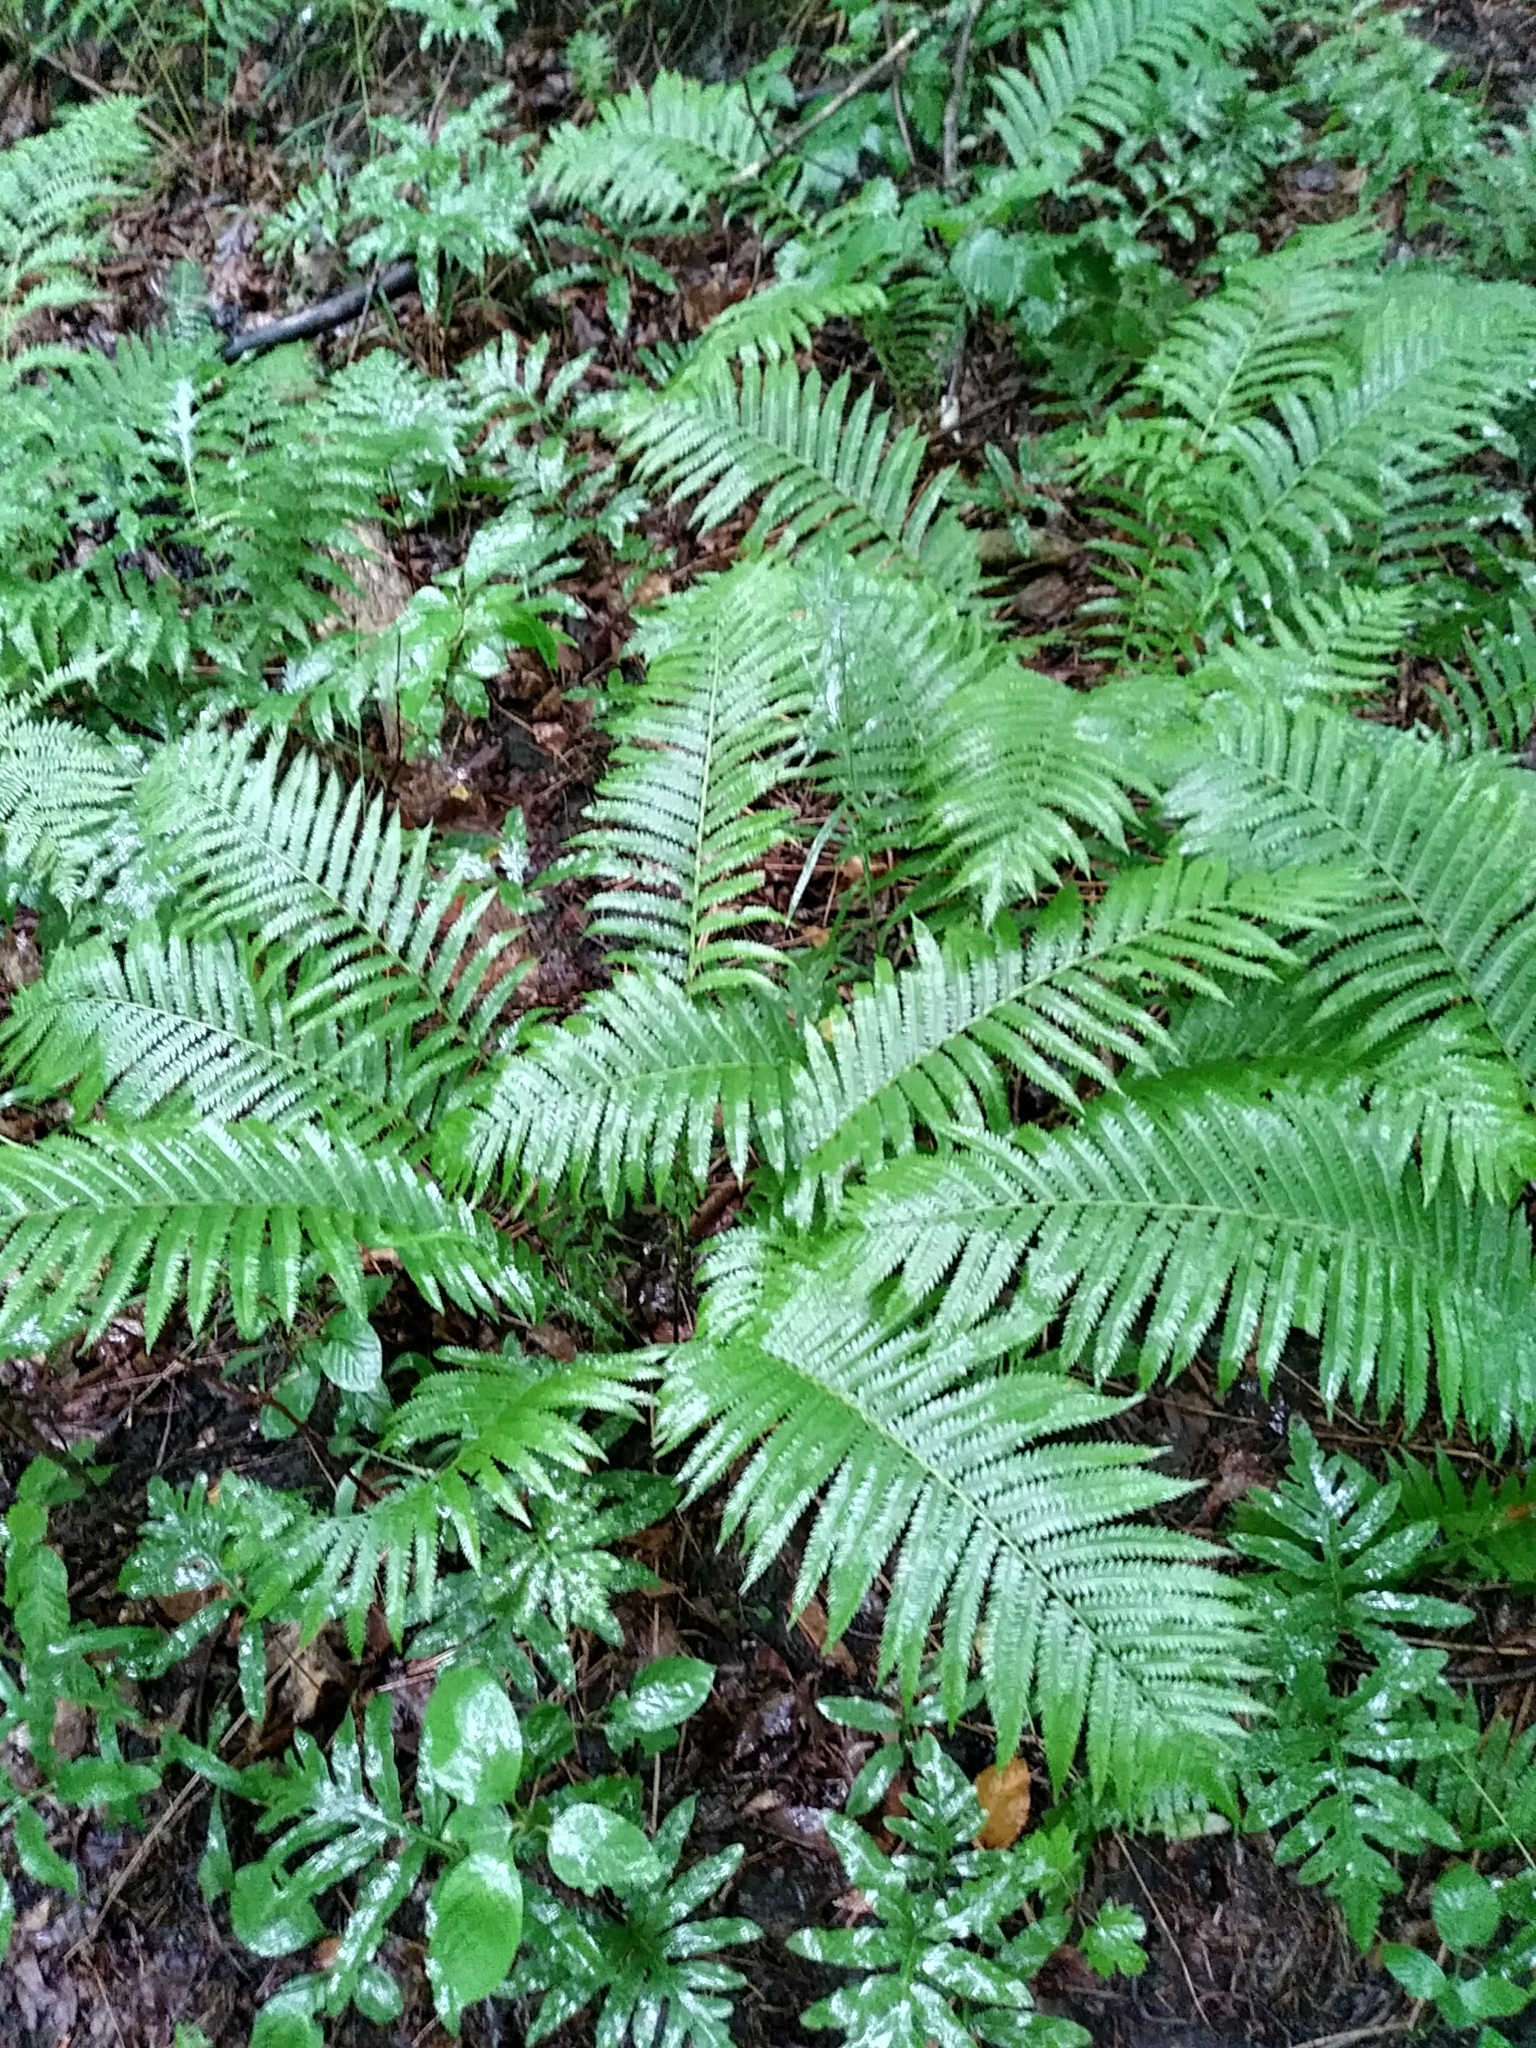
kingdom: Plantae
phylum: Tracheophyta
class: Polypodiopsida
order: Polypodiales
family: Onocleaceae
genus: Matteuccia
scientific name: Matteuccia struthiopteris
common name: Ostrich fern
